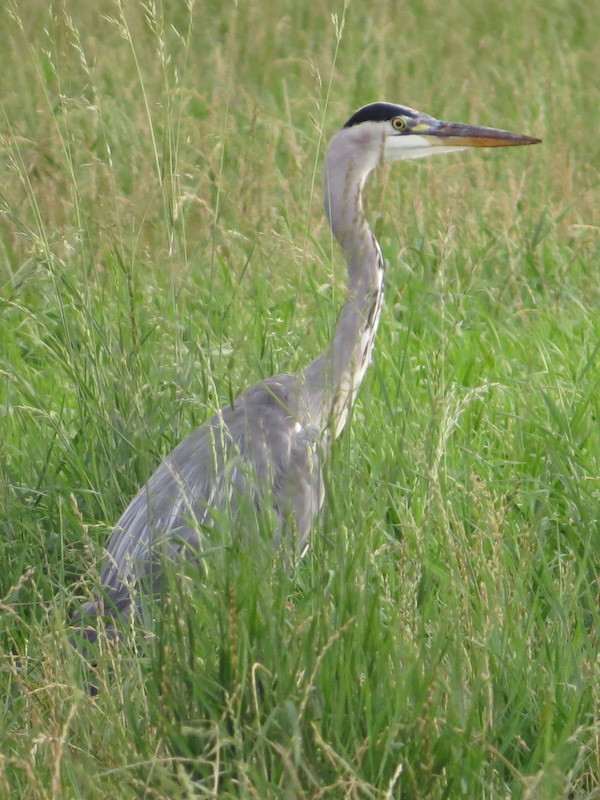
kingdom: Animalia
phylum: Chordata
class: Aves
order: Pelecaniformes
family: Ardeidae
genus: Ardea
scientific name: Ardea cinerea
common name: Grey heron
